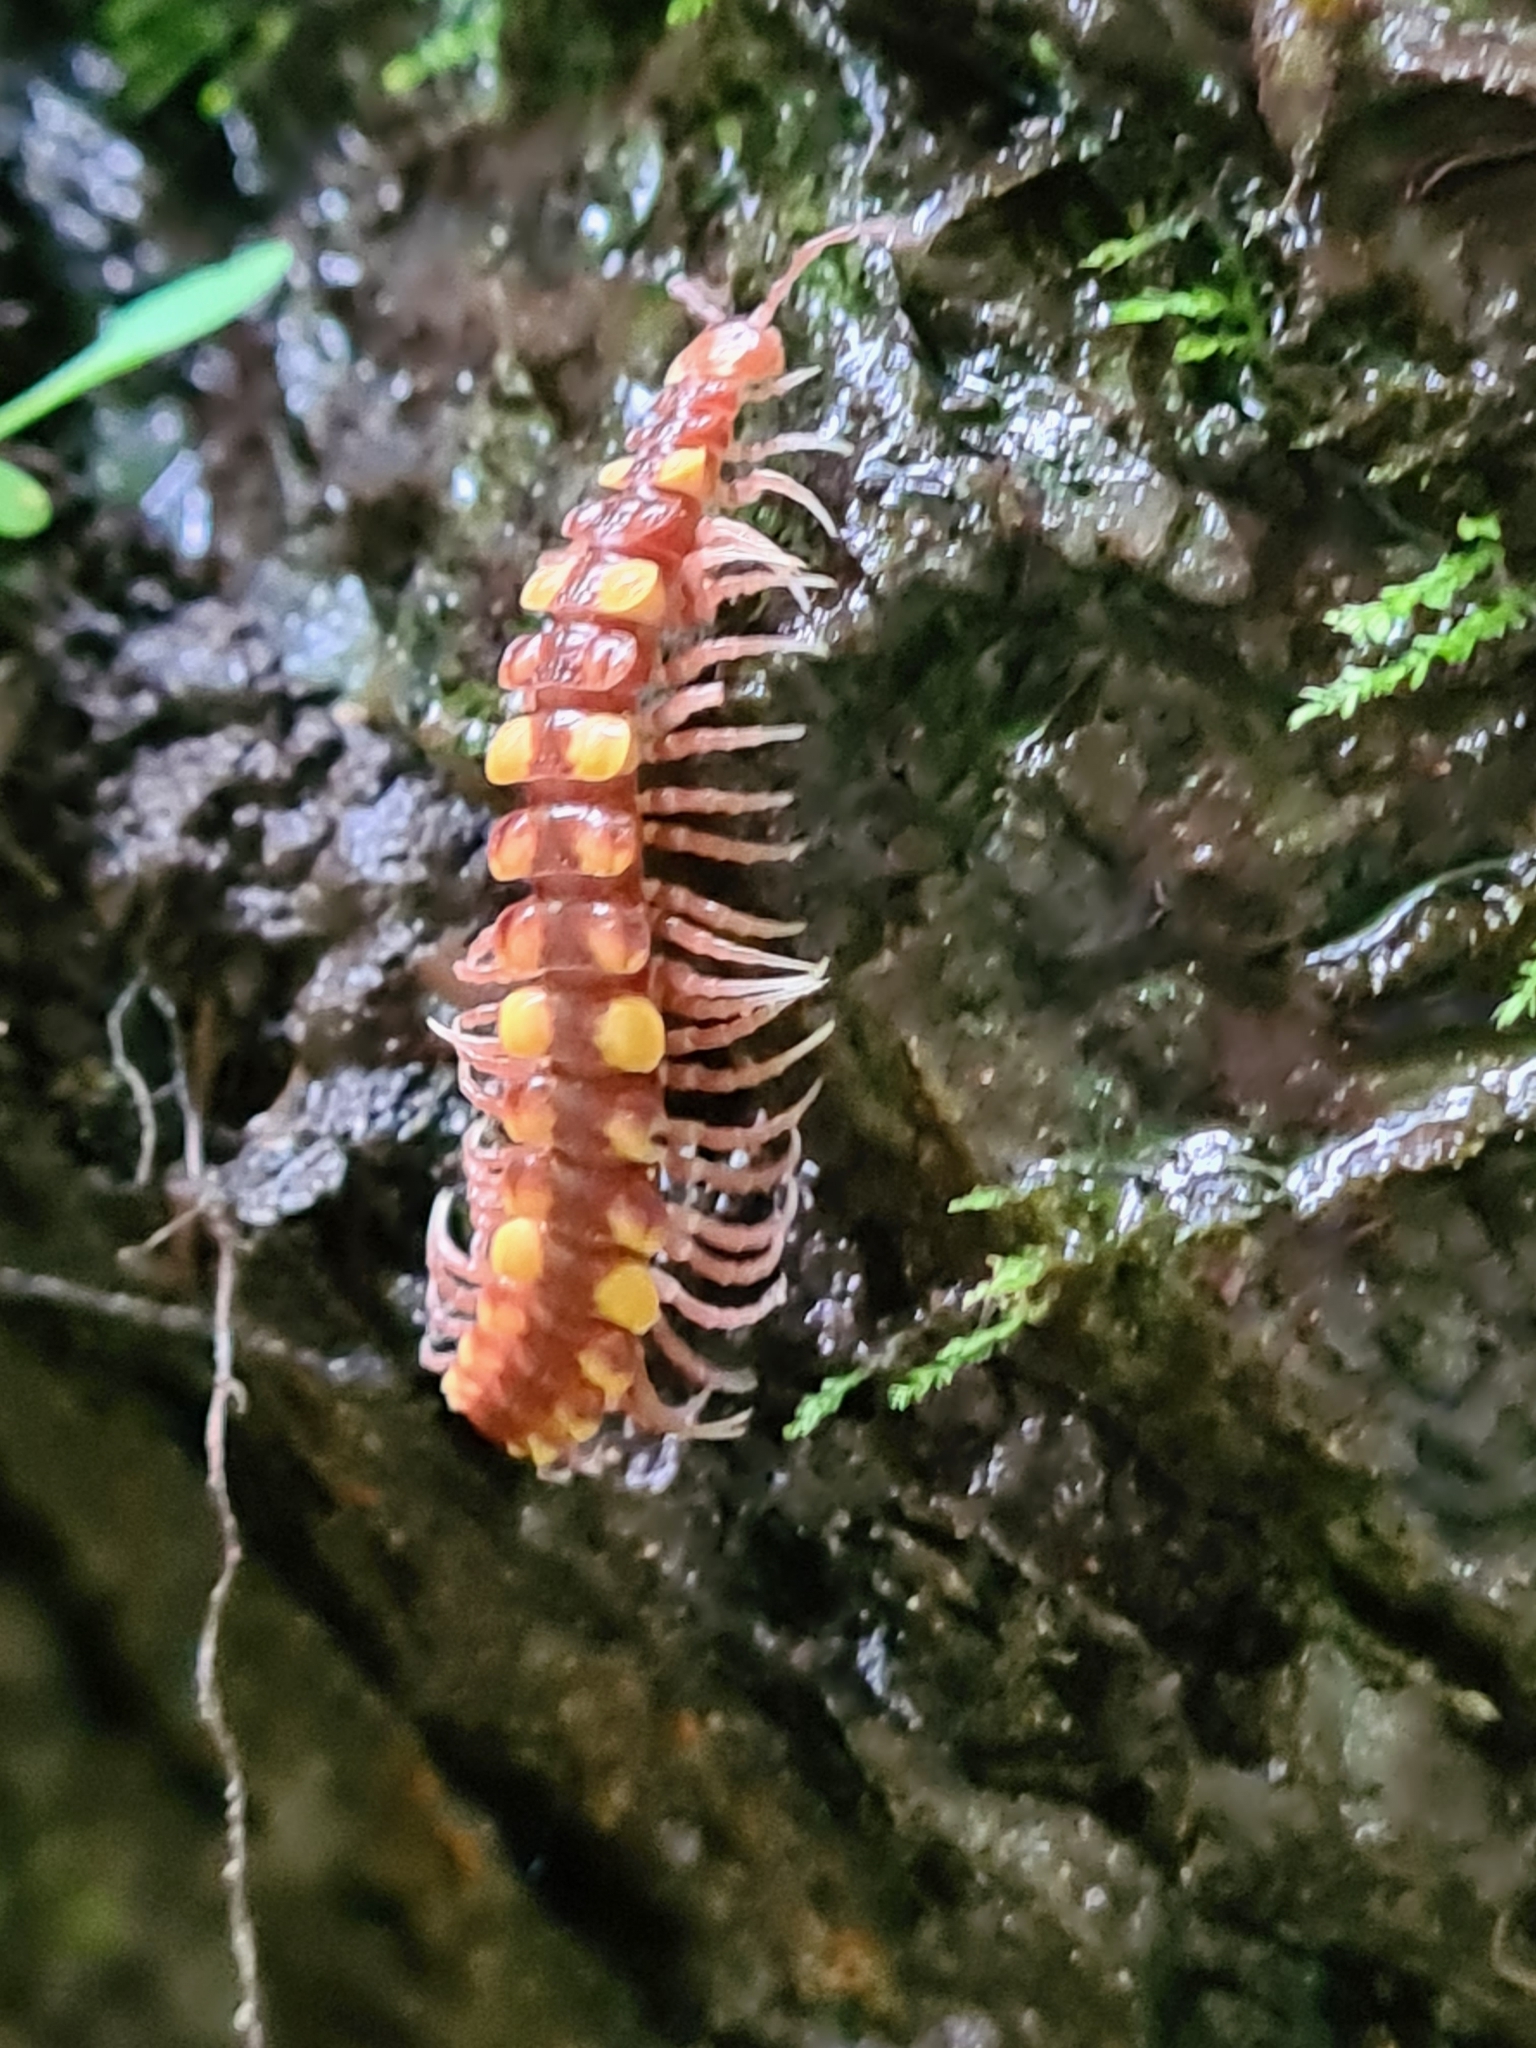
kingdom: Animalia
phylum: Arthropoda
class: Diplopoda
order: Polydesmida
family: Polydesmidae
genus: Polydesmus
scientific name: Polydesmus collaris
